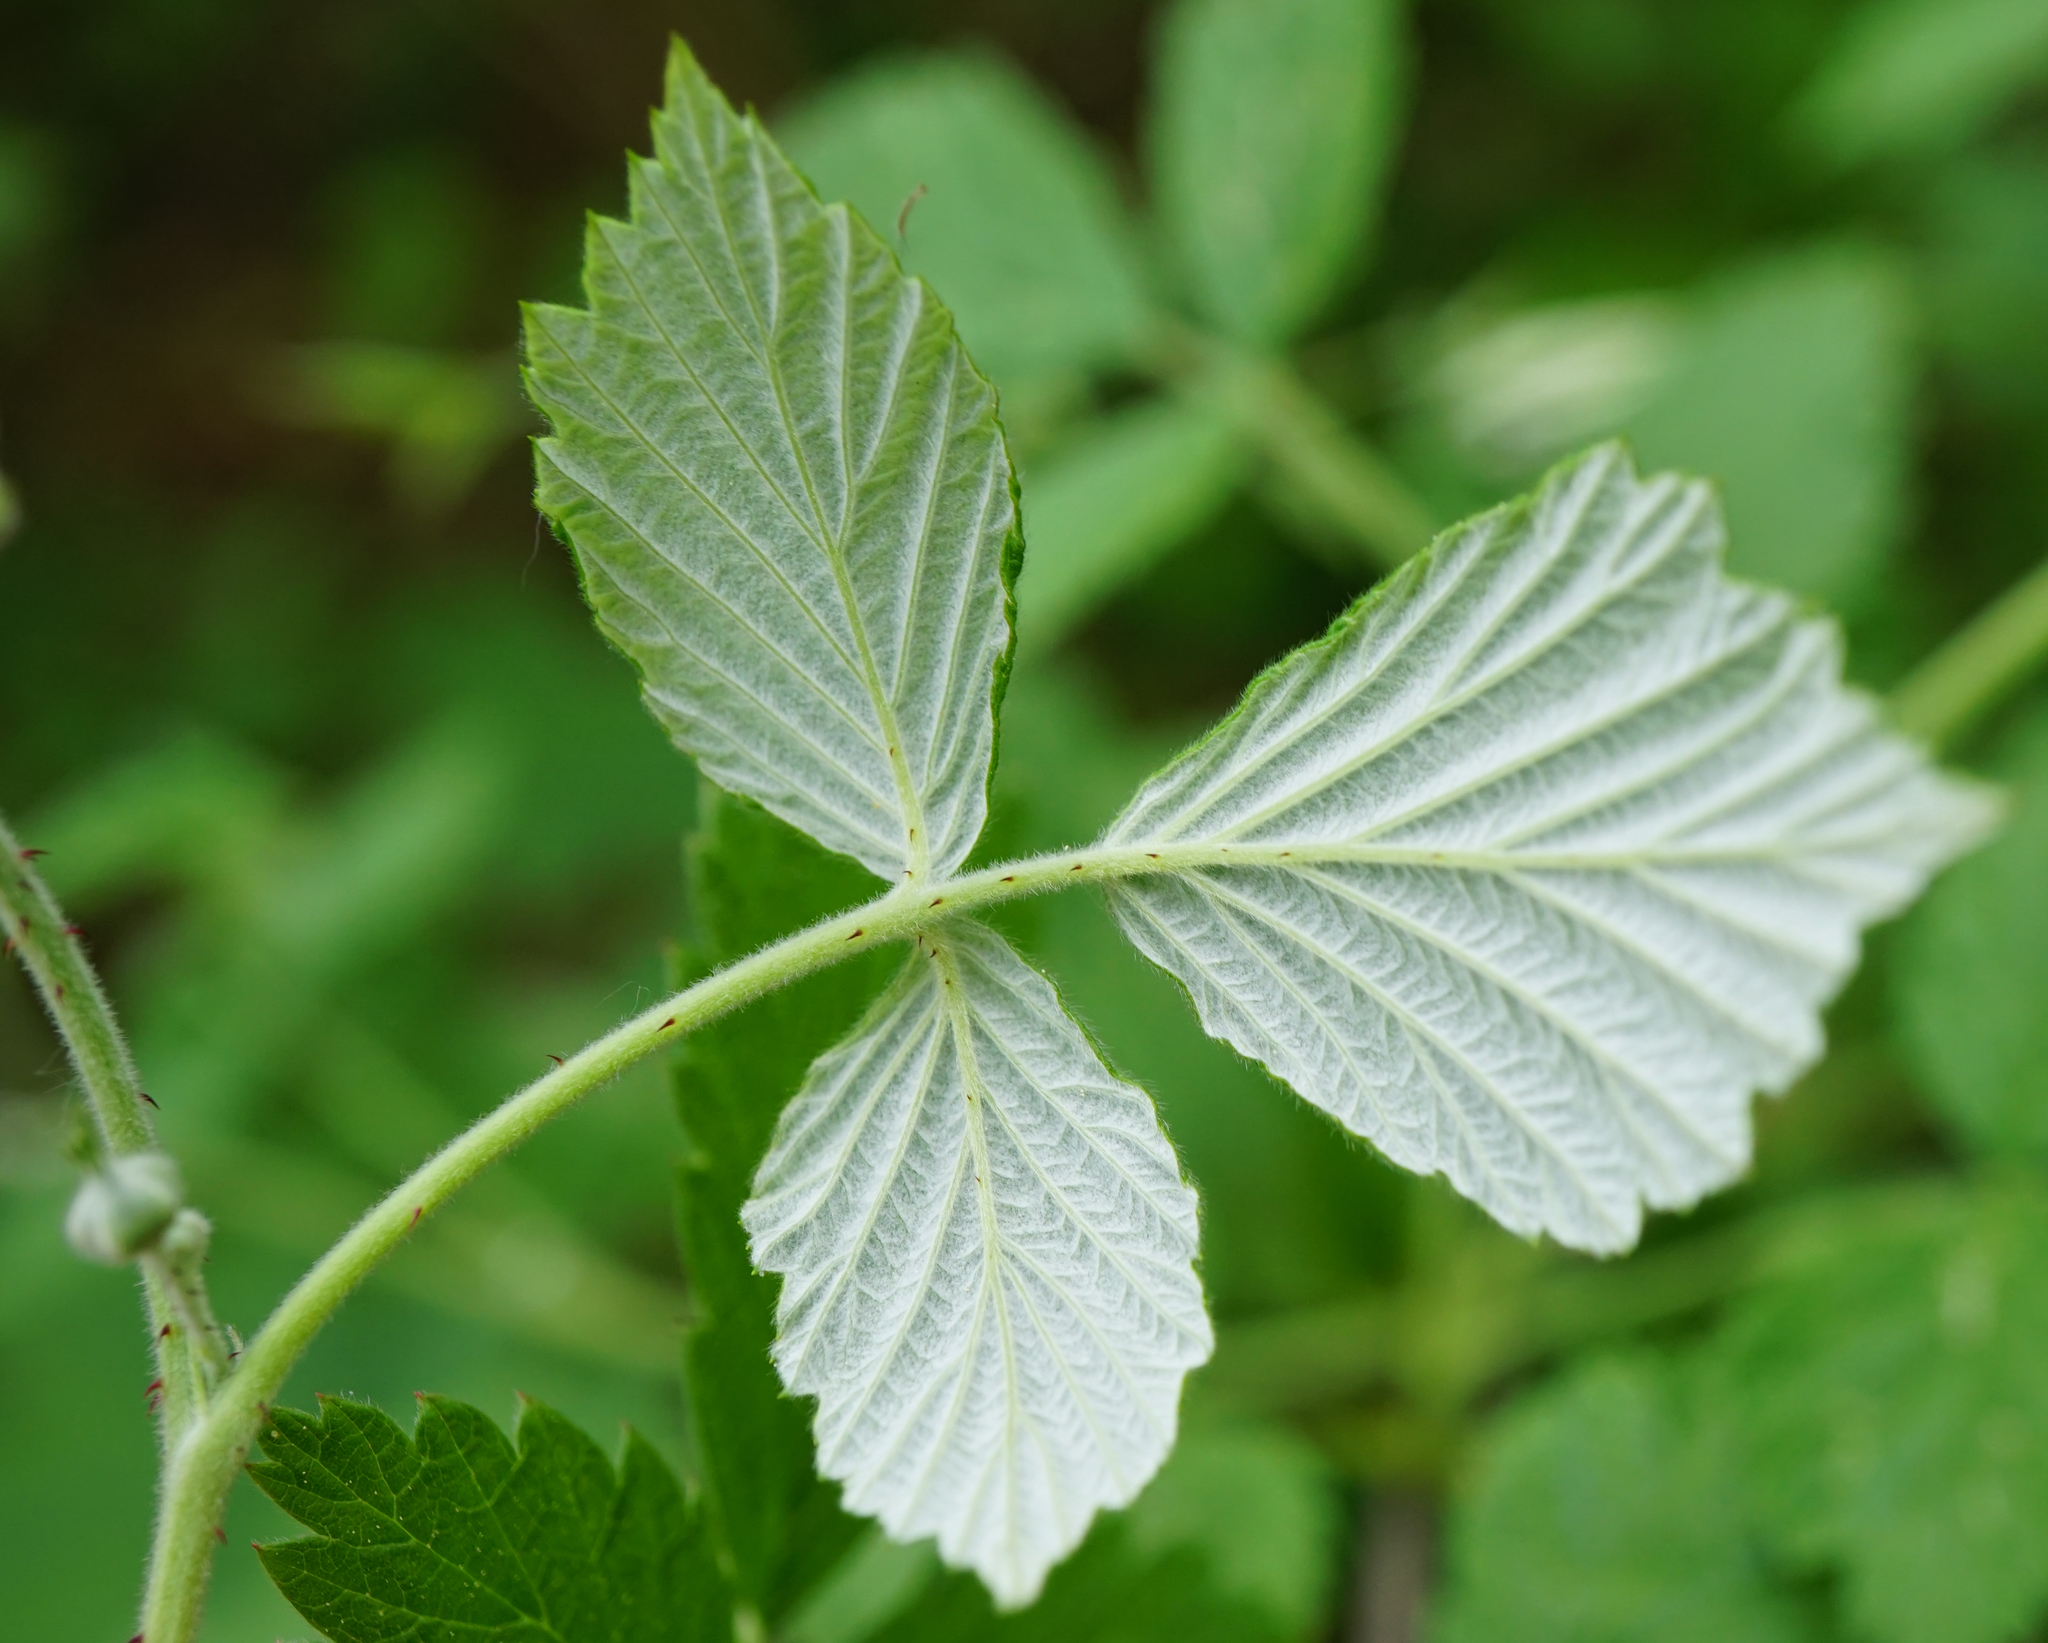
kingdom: Plantae
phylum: Tracheophyta
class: Magnoliopsida
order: Rosales
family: Rosaceae
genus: Rubus
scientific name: Rubus idaeus
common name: Raspberry
